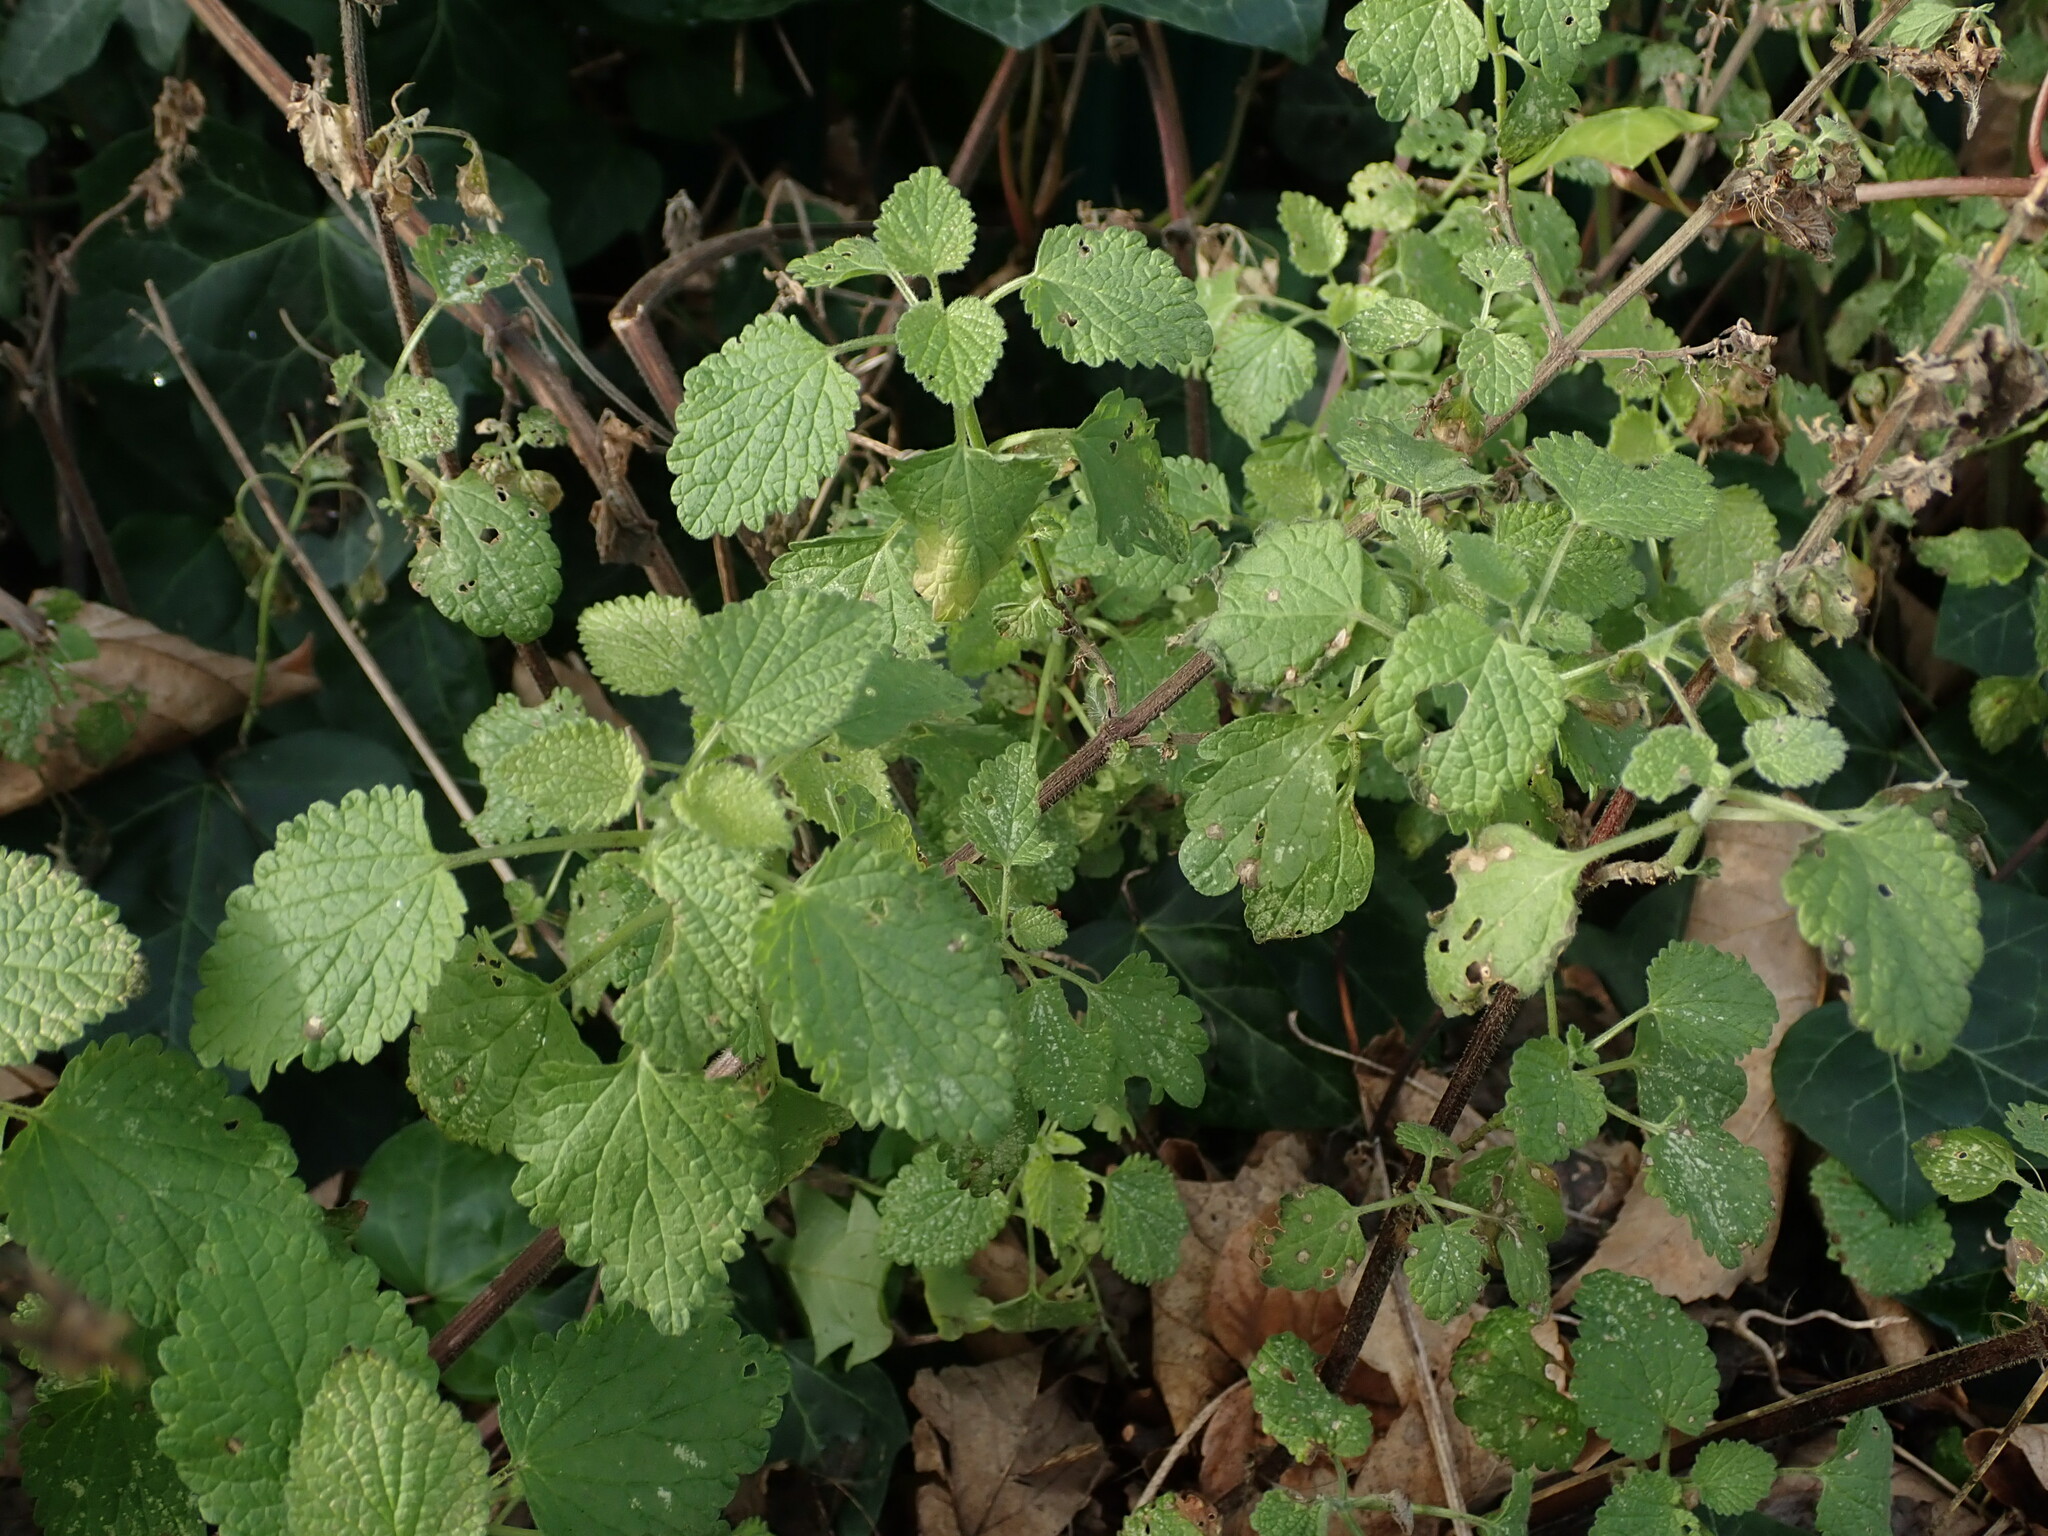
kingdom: Plantae
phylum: Tracheophyta
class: Magnoliopsida
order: Lamiales
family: Lamiaceae
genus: Ballota
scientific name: Ballota nigra
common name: Black horehound
